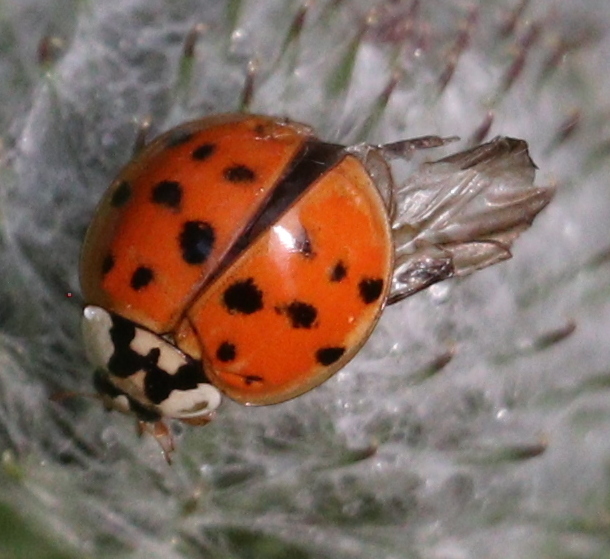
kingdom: Animalia
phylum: Arthropoda
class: Insecta
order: Coleoptera
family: Coccinellidae
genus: Harmonia
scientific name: Harmonia axyridis
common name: Harlequin ladybird
